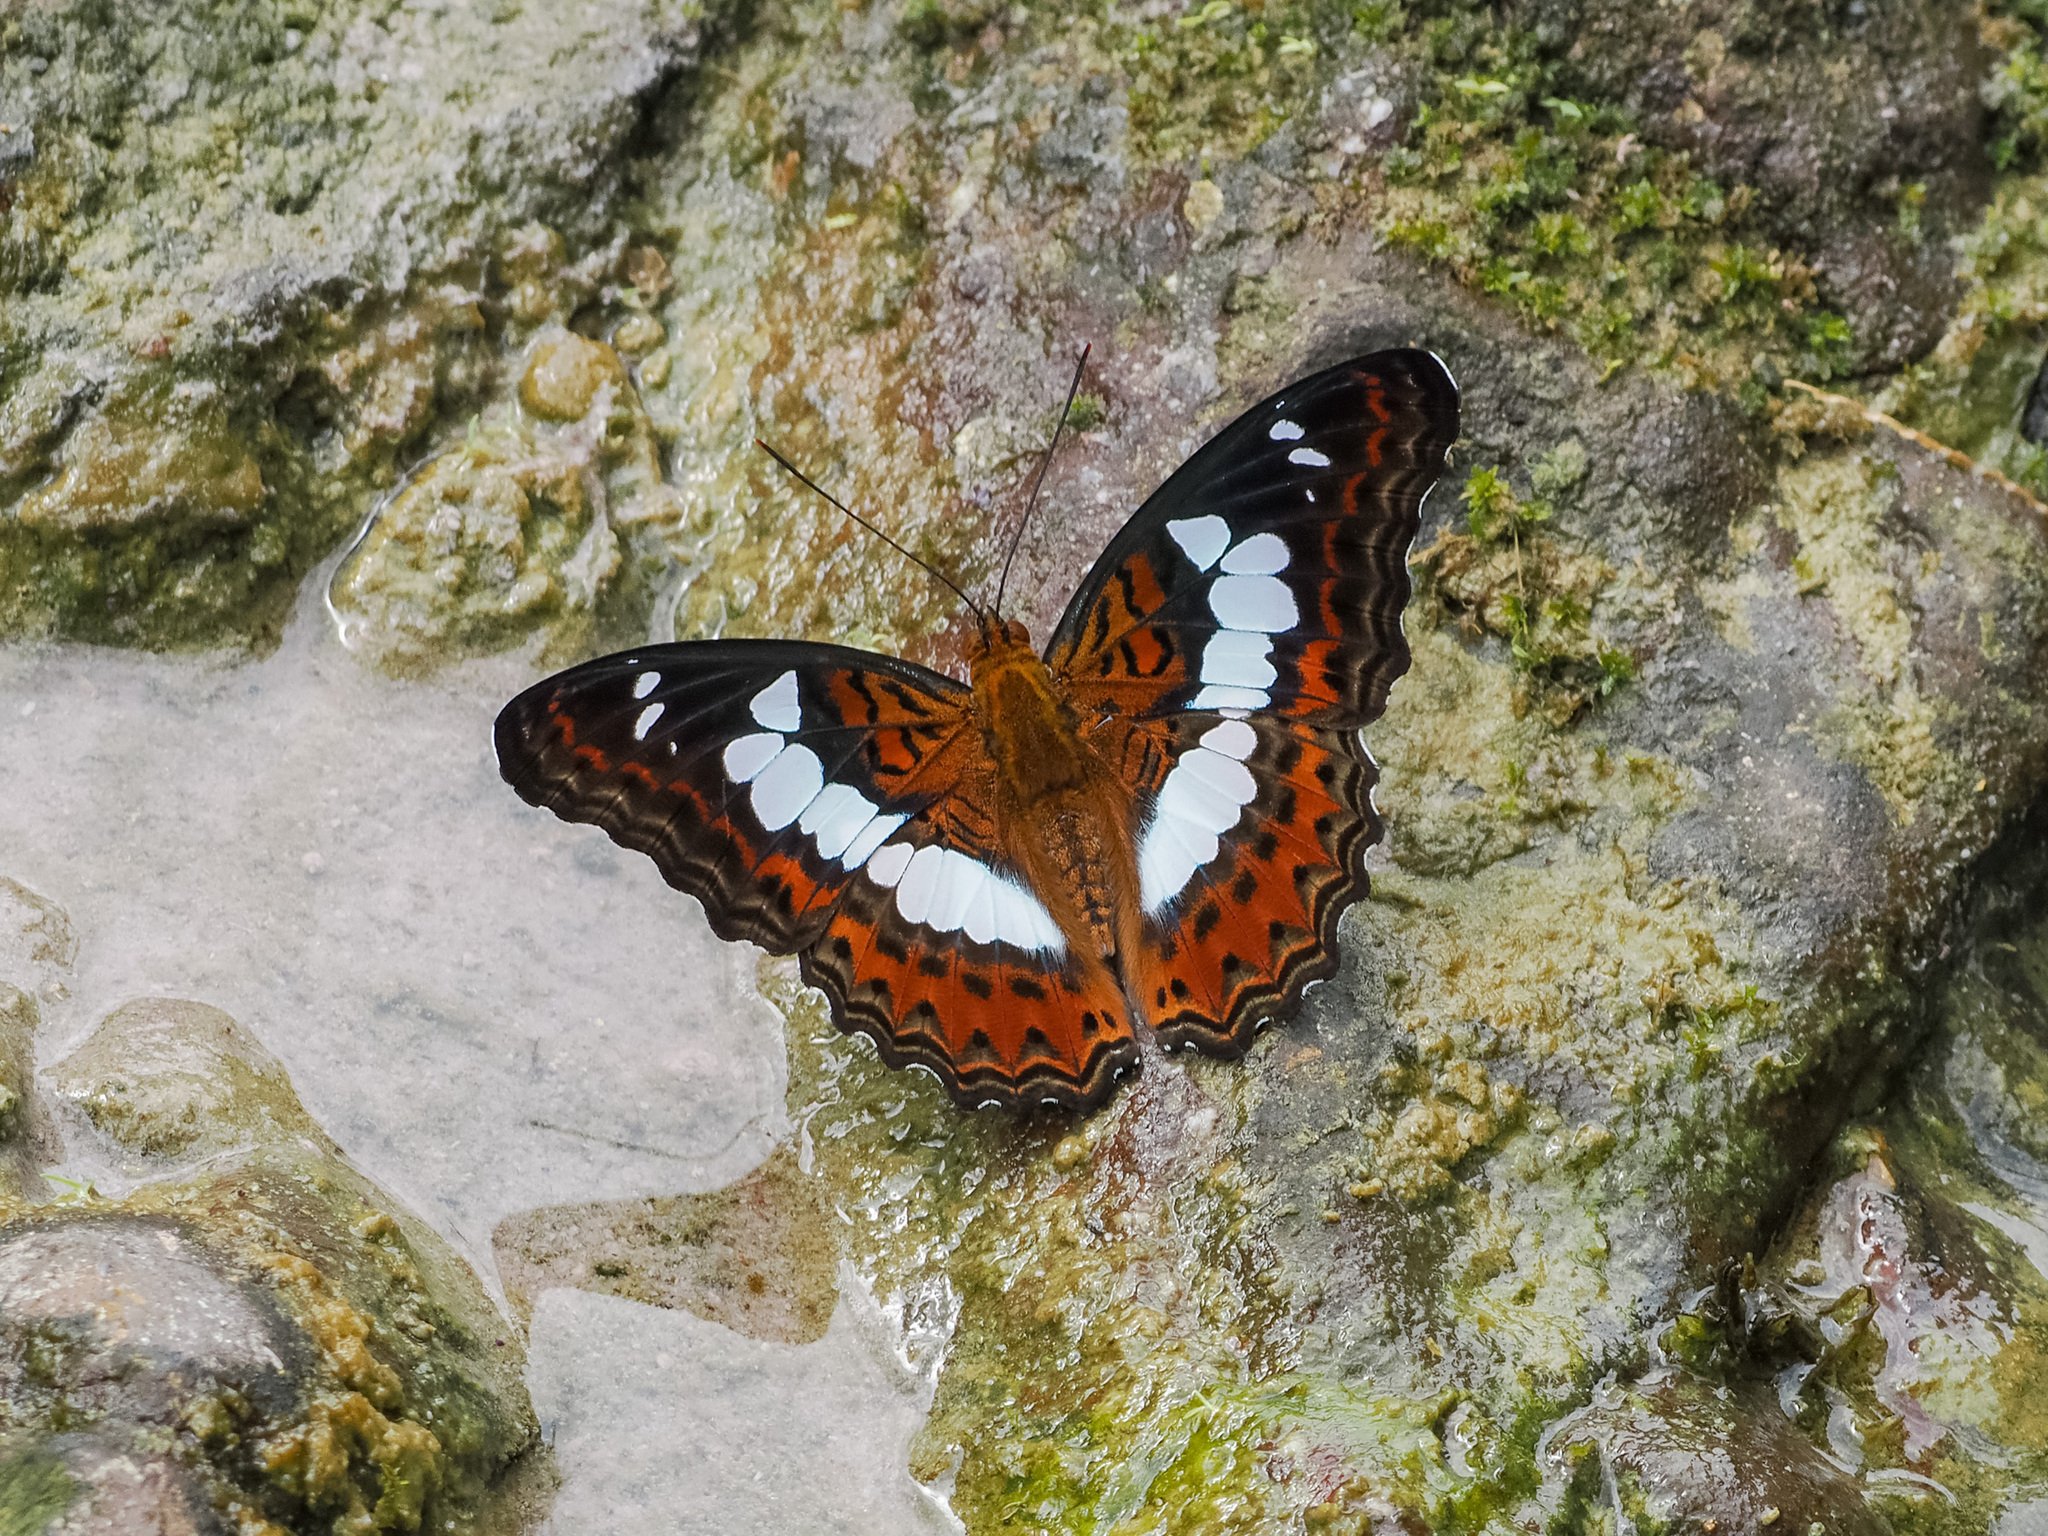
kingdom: Animalia
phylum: Arthropoda
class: Insecta
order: Lepidoptera
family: Nymphalidae
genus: Limenitis
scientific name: Limenitis Moduza procris
